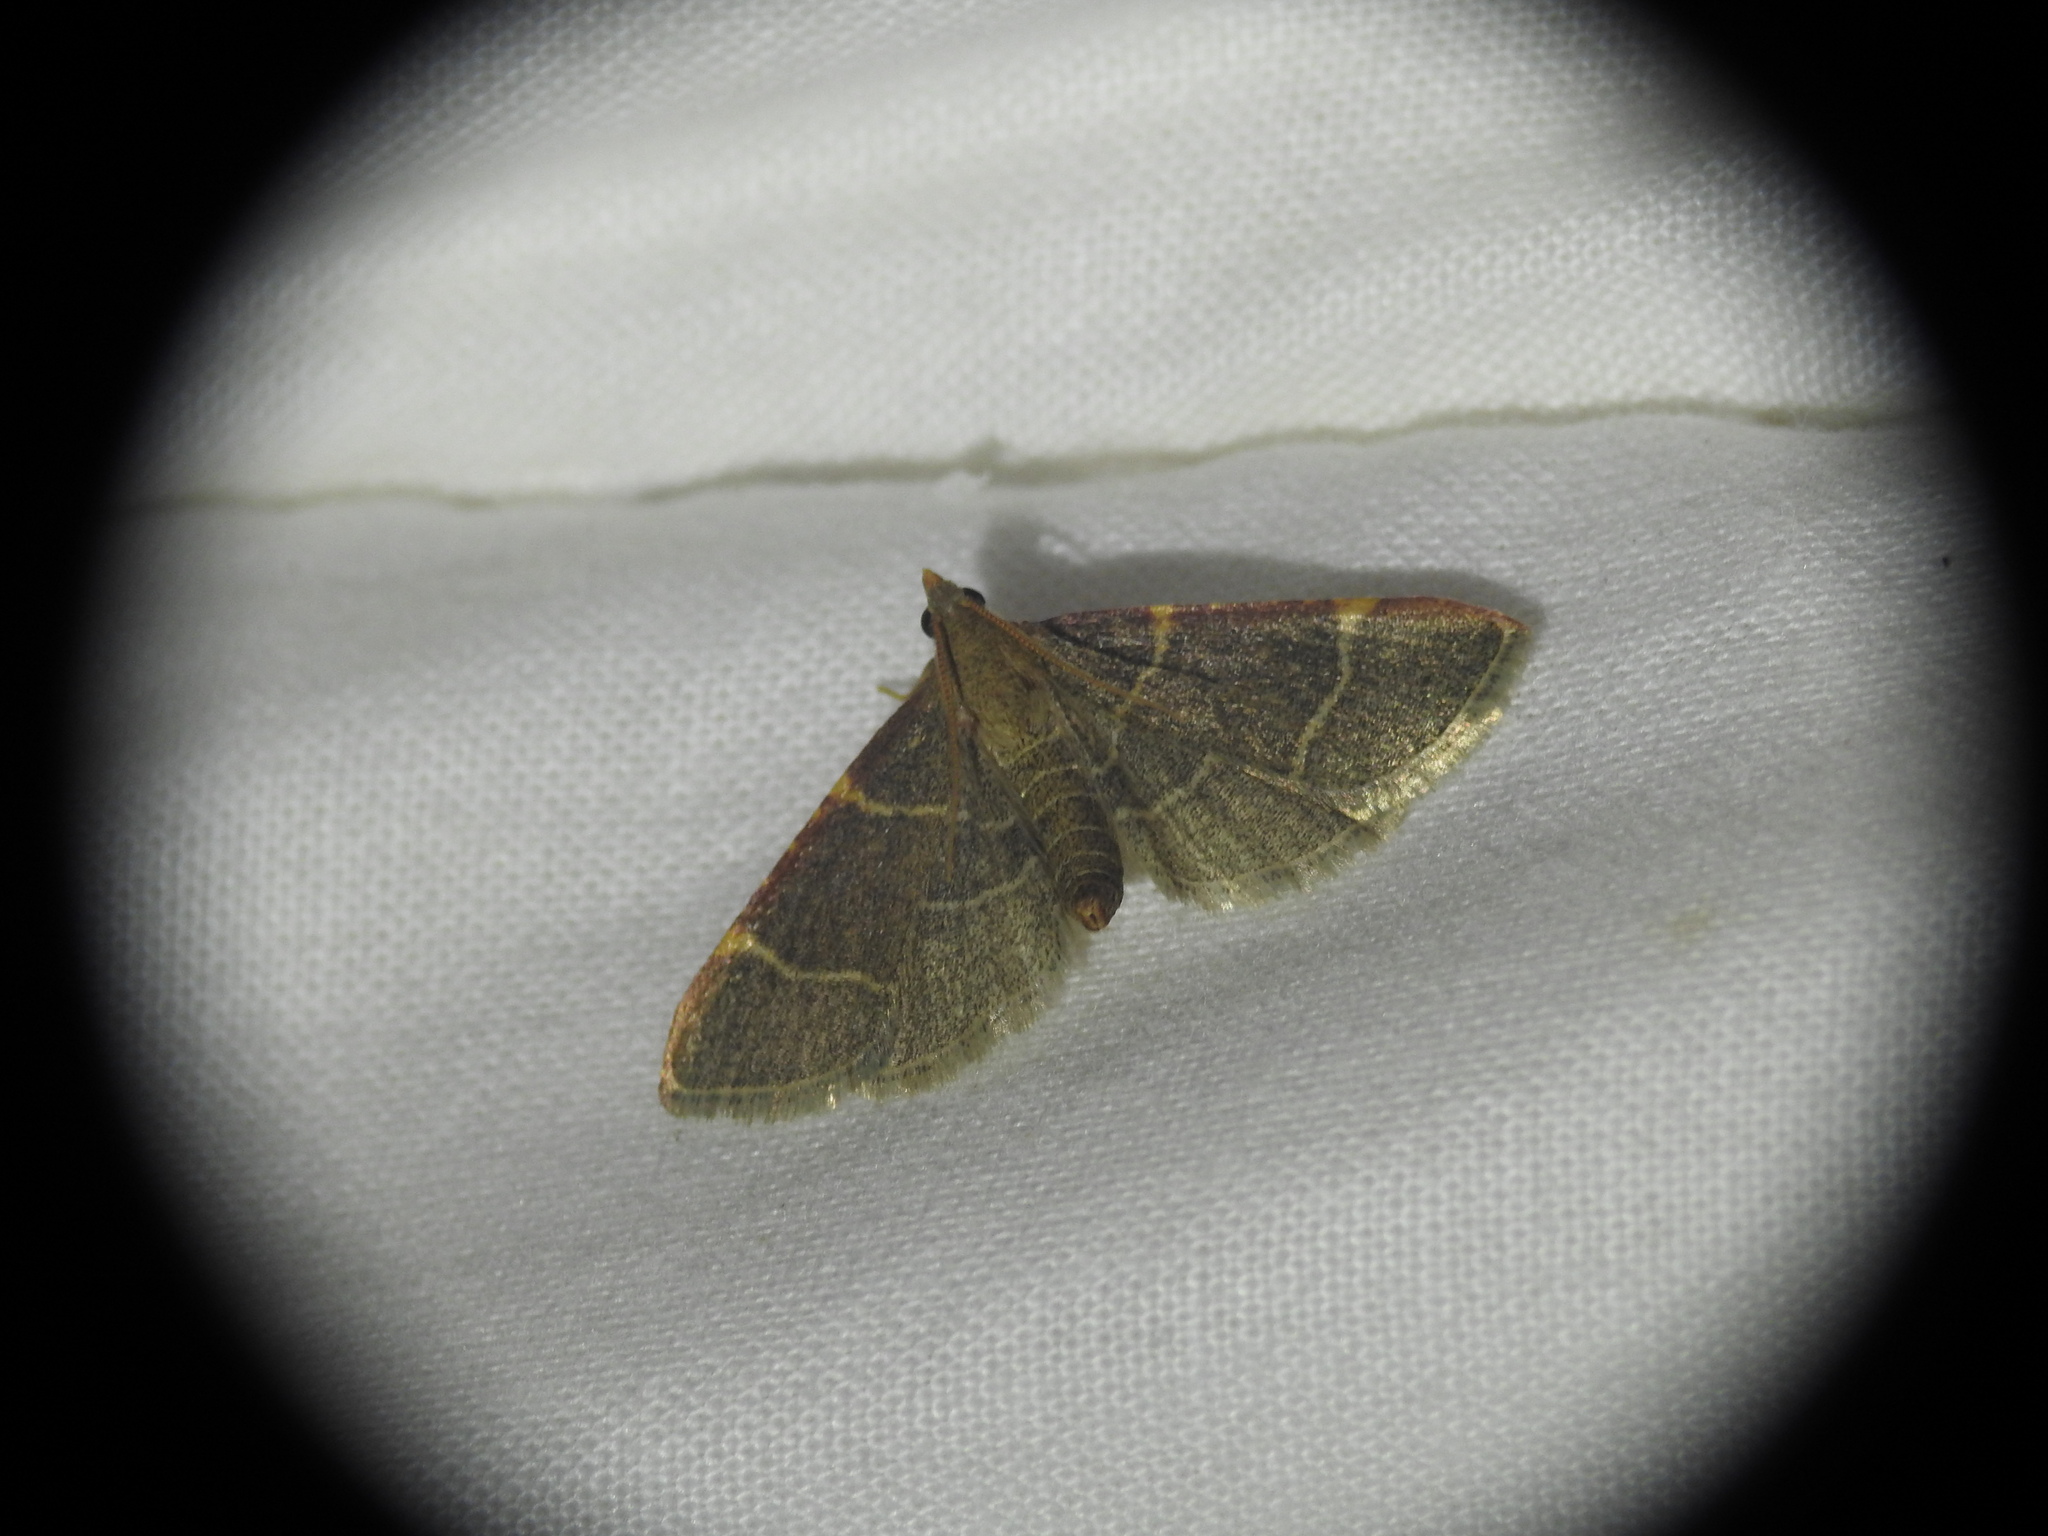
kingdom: Animalia
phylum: Arthropoda
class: Insecta
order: Lepidoptera
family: Pyralidae
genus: Hypsopygia
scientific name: Hypsopygia glaucinalis
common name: Double-striped tabby
